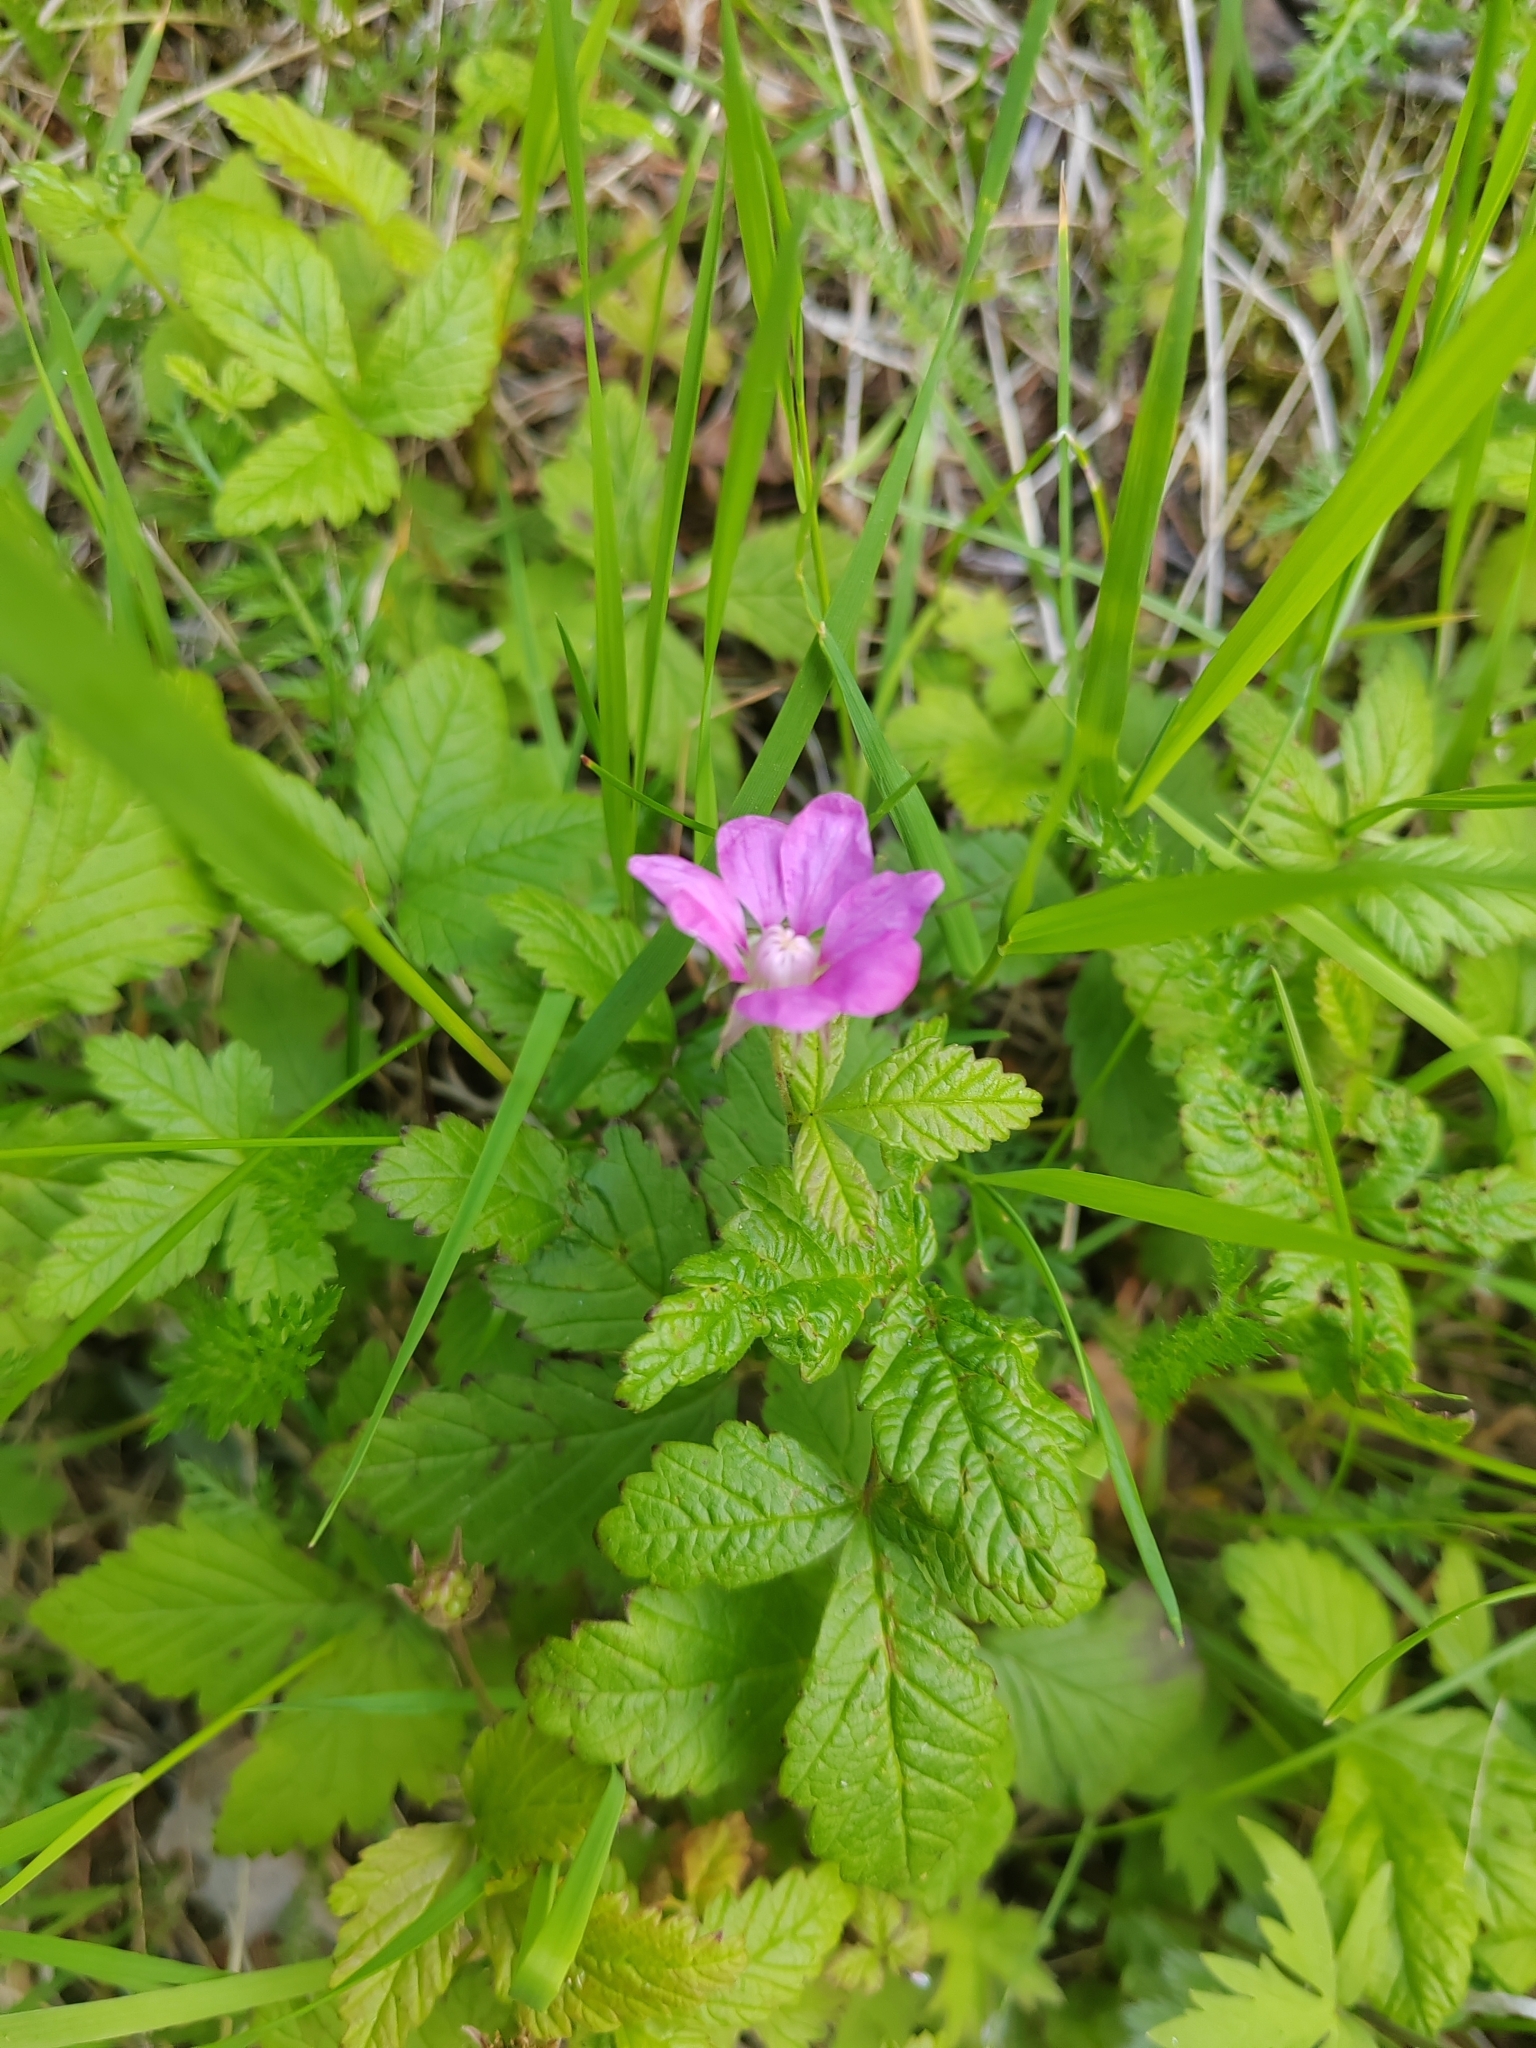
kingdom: Plantae
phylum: Tracheophyta
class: Magnoliopsida
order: Rosales
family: Rosaceae
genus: Rubus
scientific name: Rubus arcticus
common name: Arctic bramble
